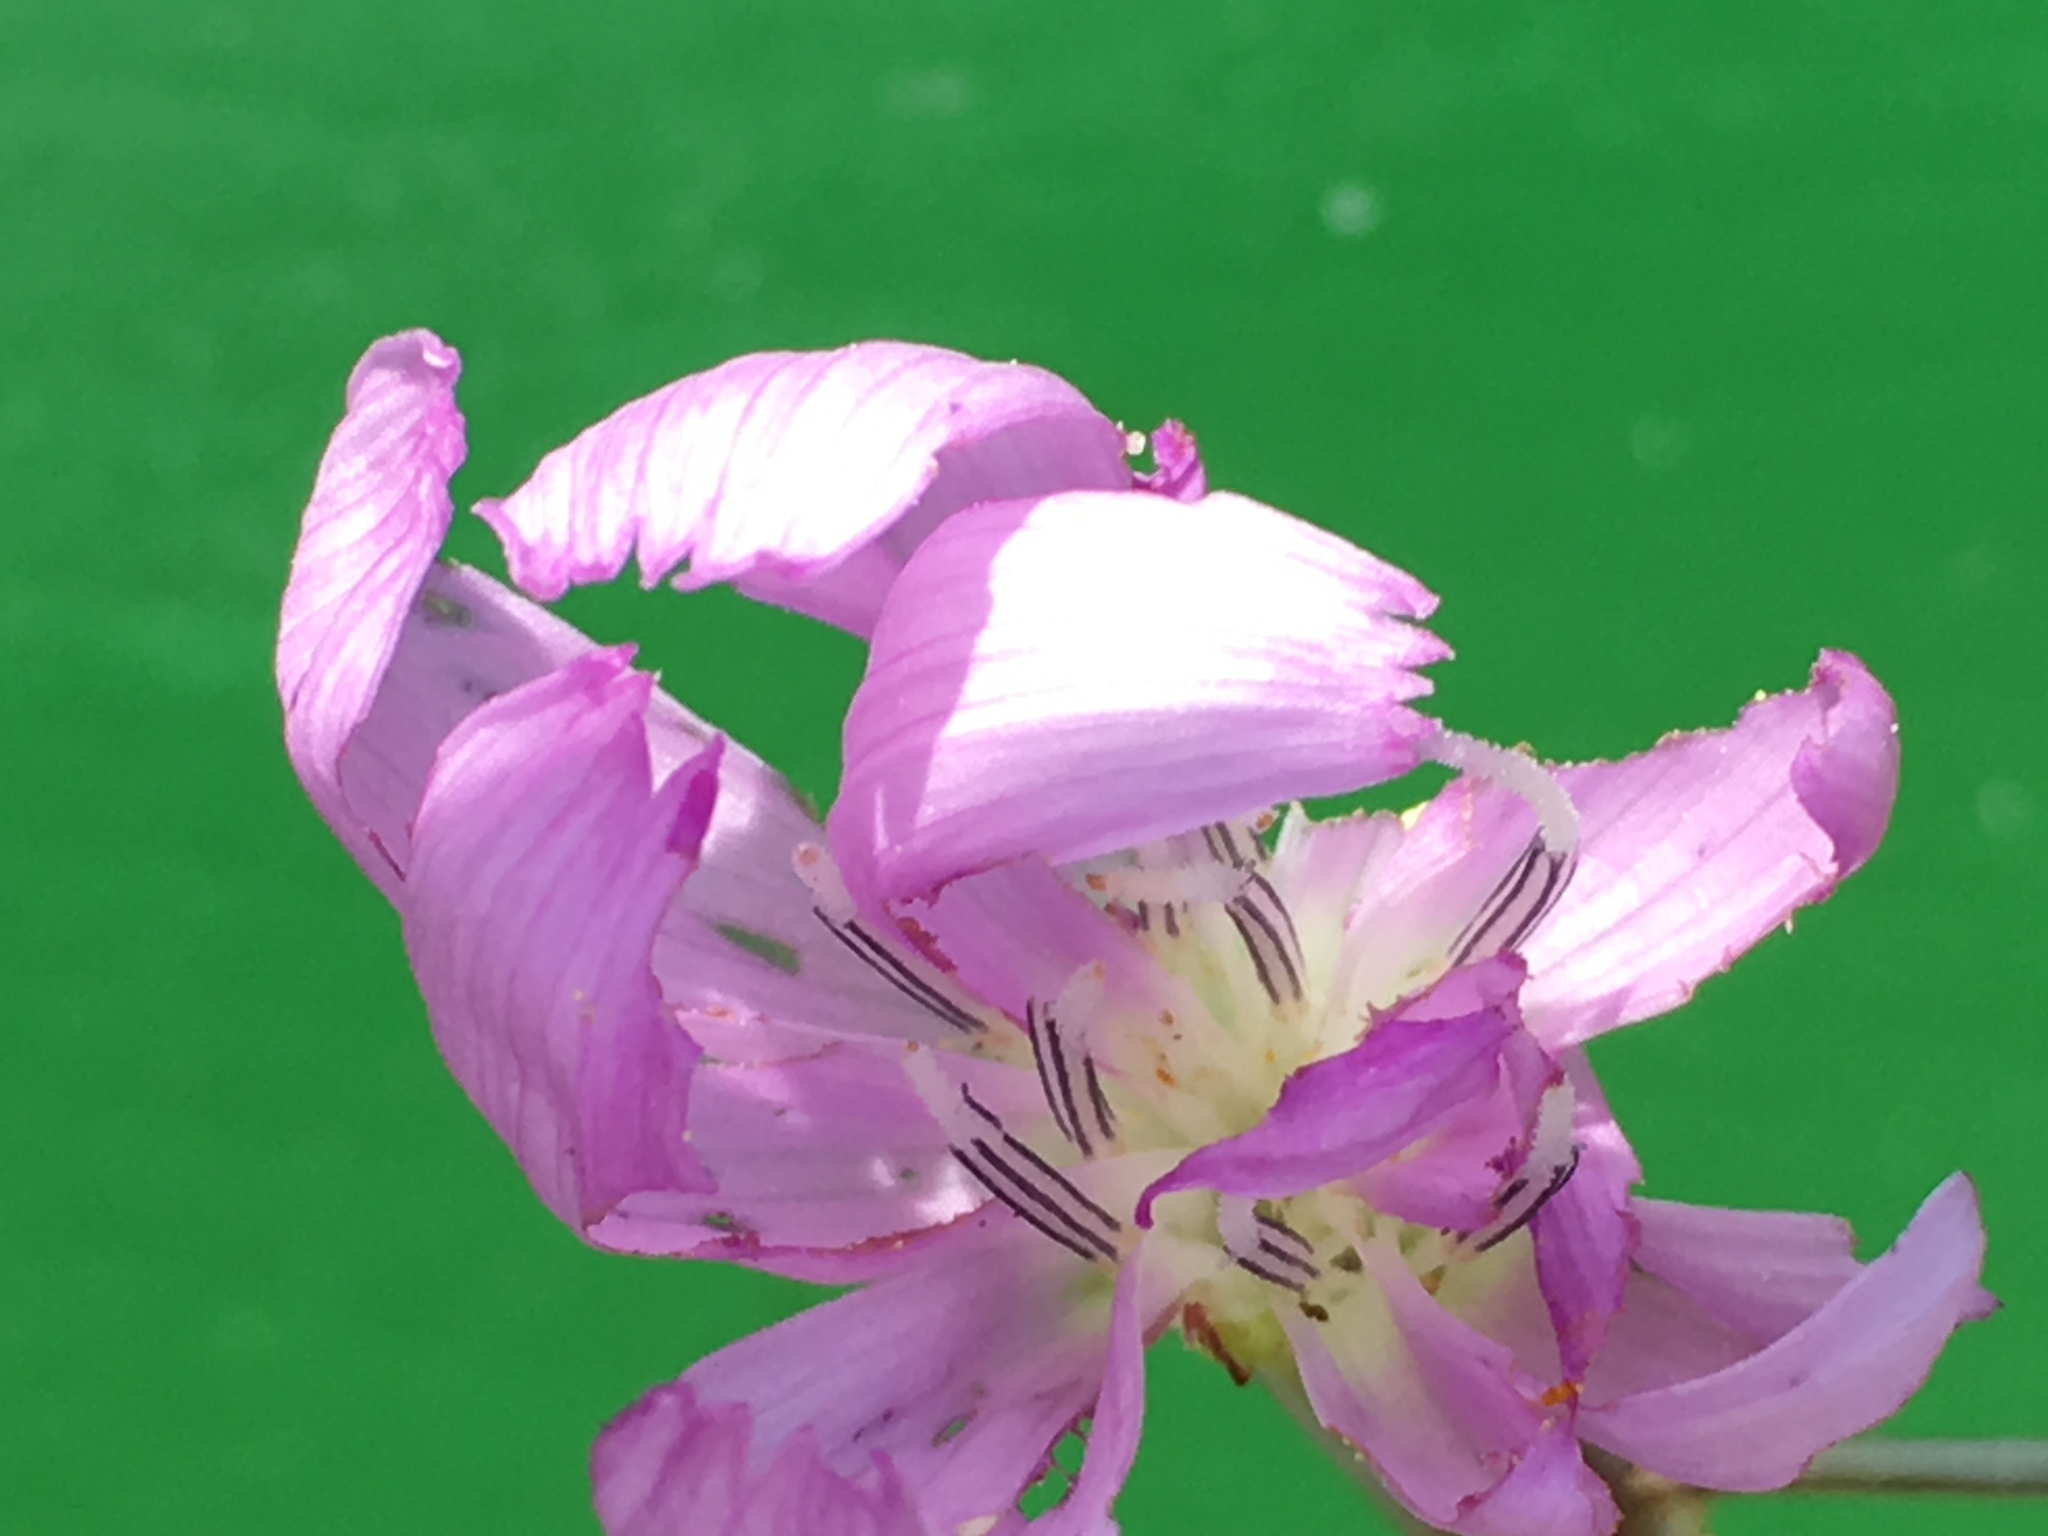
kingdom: Plantae
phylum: Tracheophyta
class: Magnoliopsida
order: Asterales
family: Asteraceae
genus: Lygodesmia
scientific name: Lygodesmia texana
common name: Texas skeleton-plant
